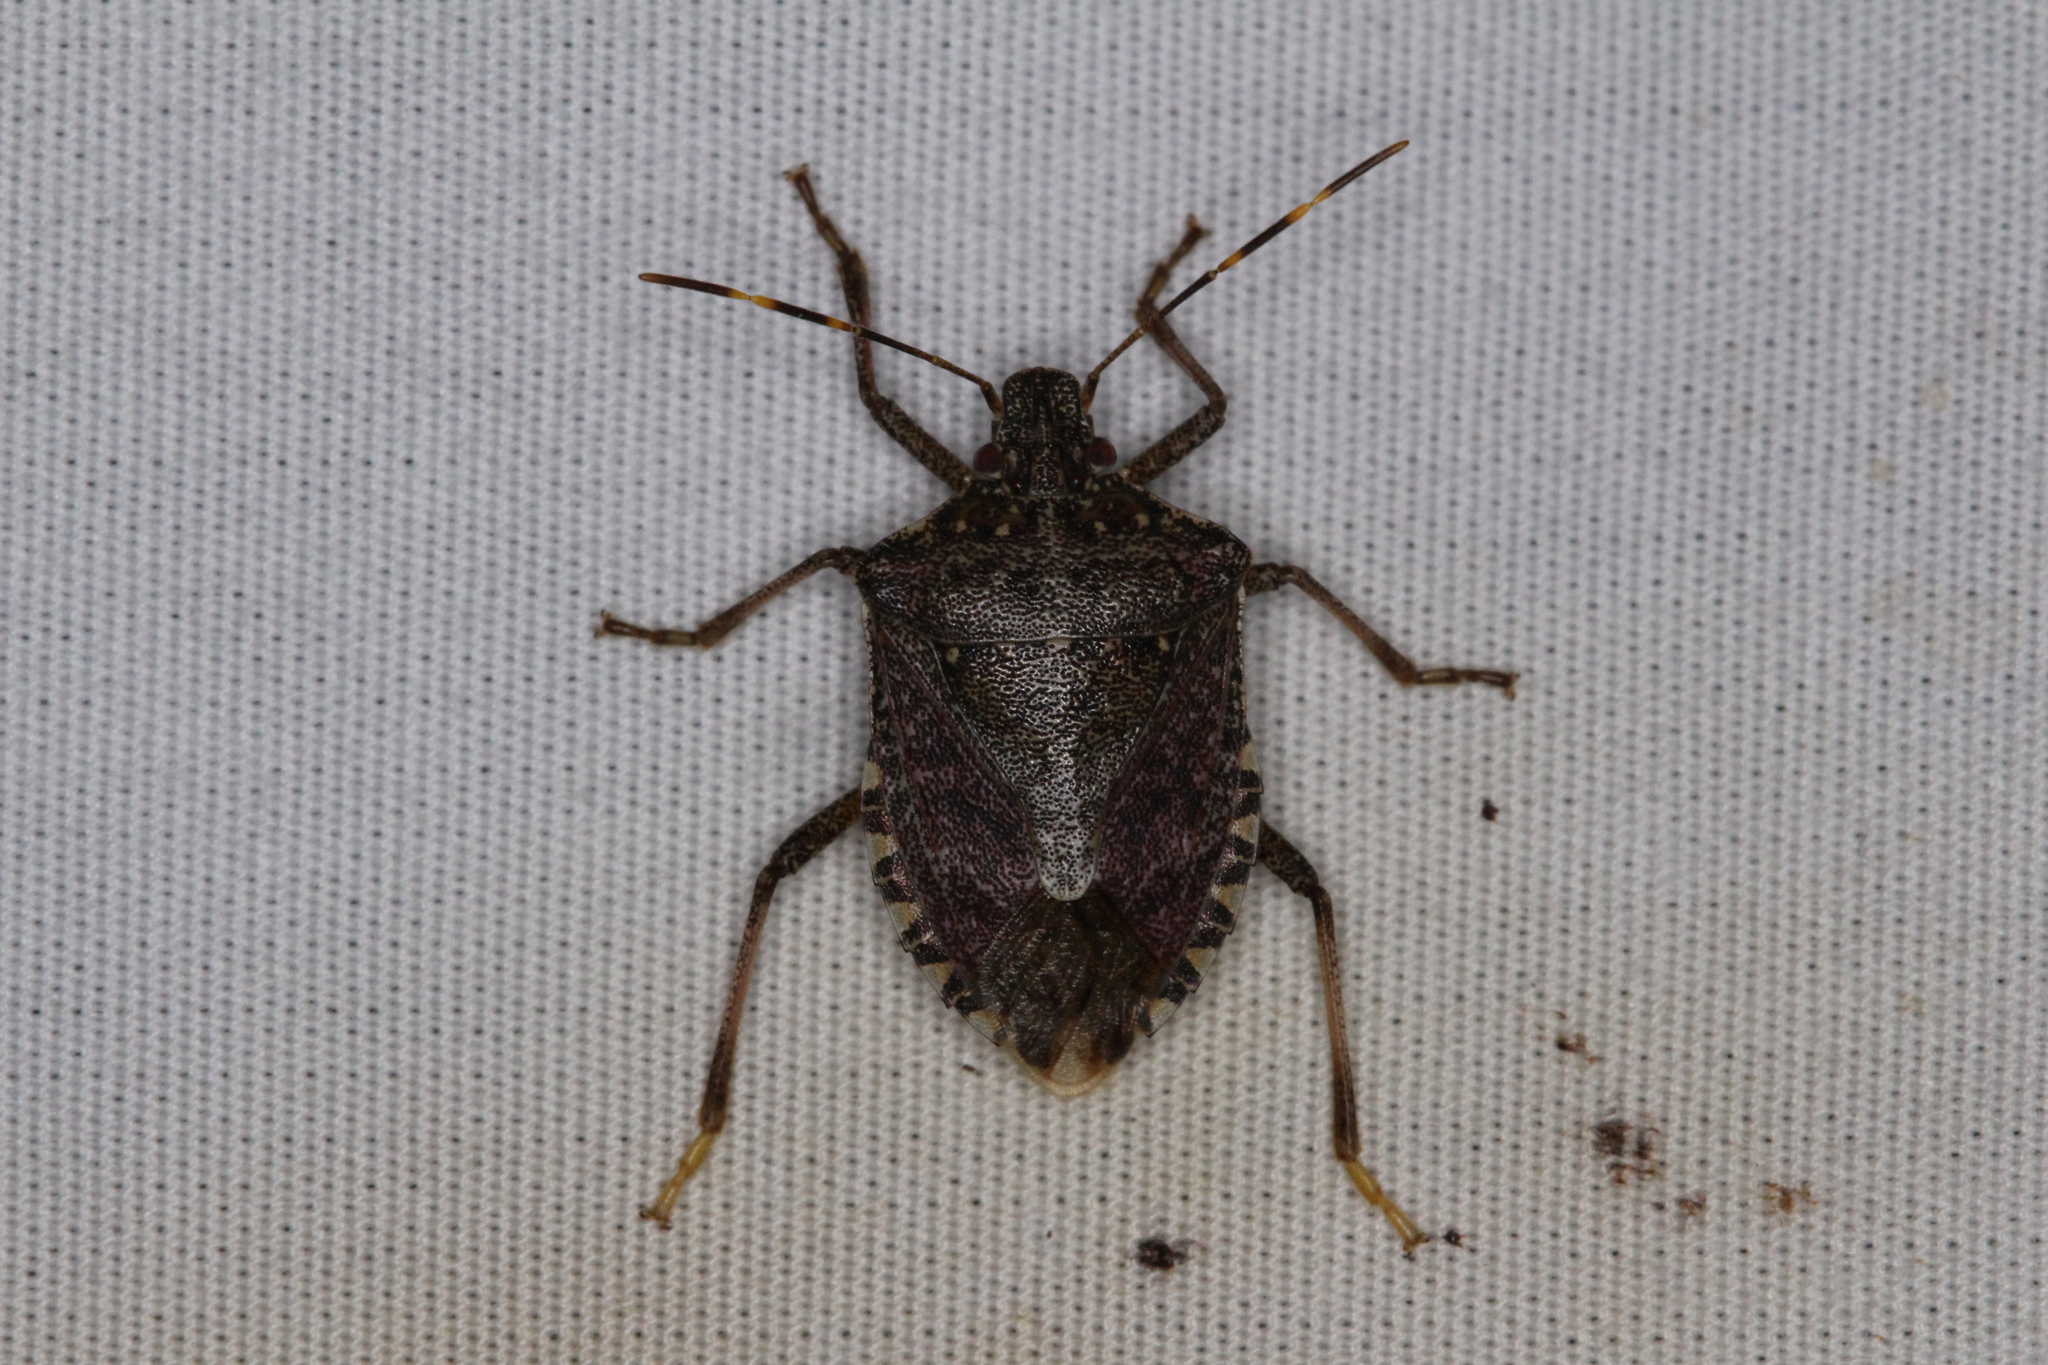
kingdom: Animalia
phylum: Arthropoda
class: Insecta
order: Hemiptera
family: Pentatomidae
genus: Halyomorpha
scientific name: Halyomorpha halys
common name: Brown marmorated stink bug
